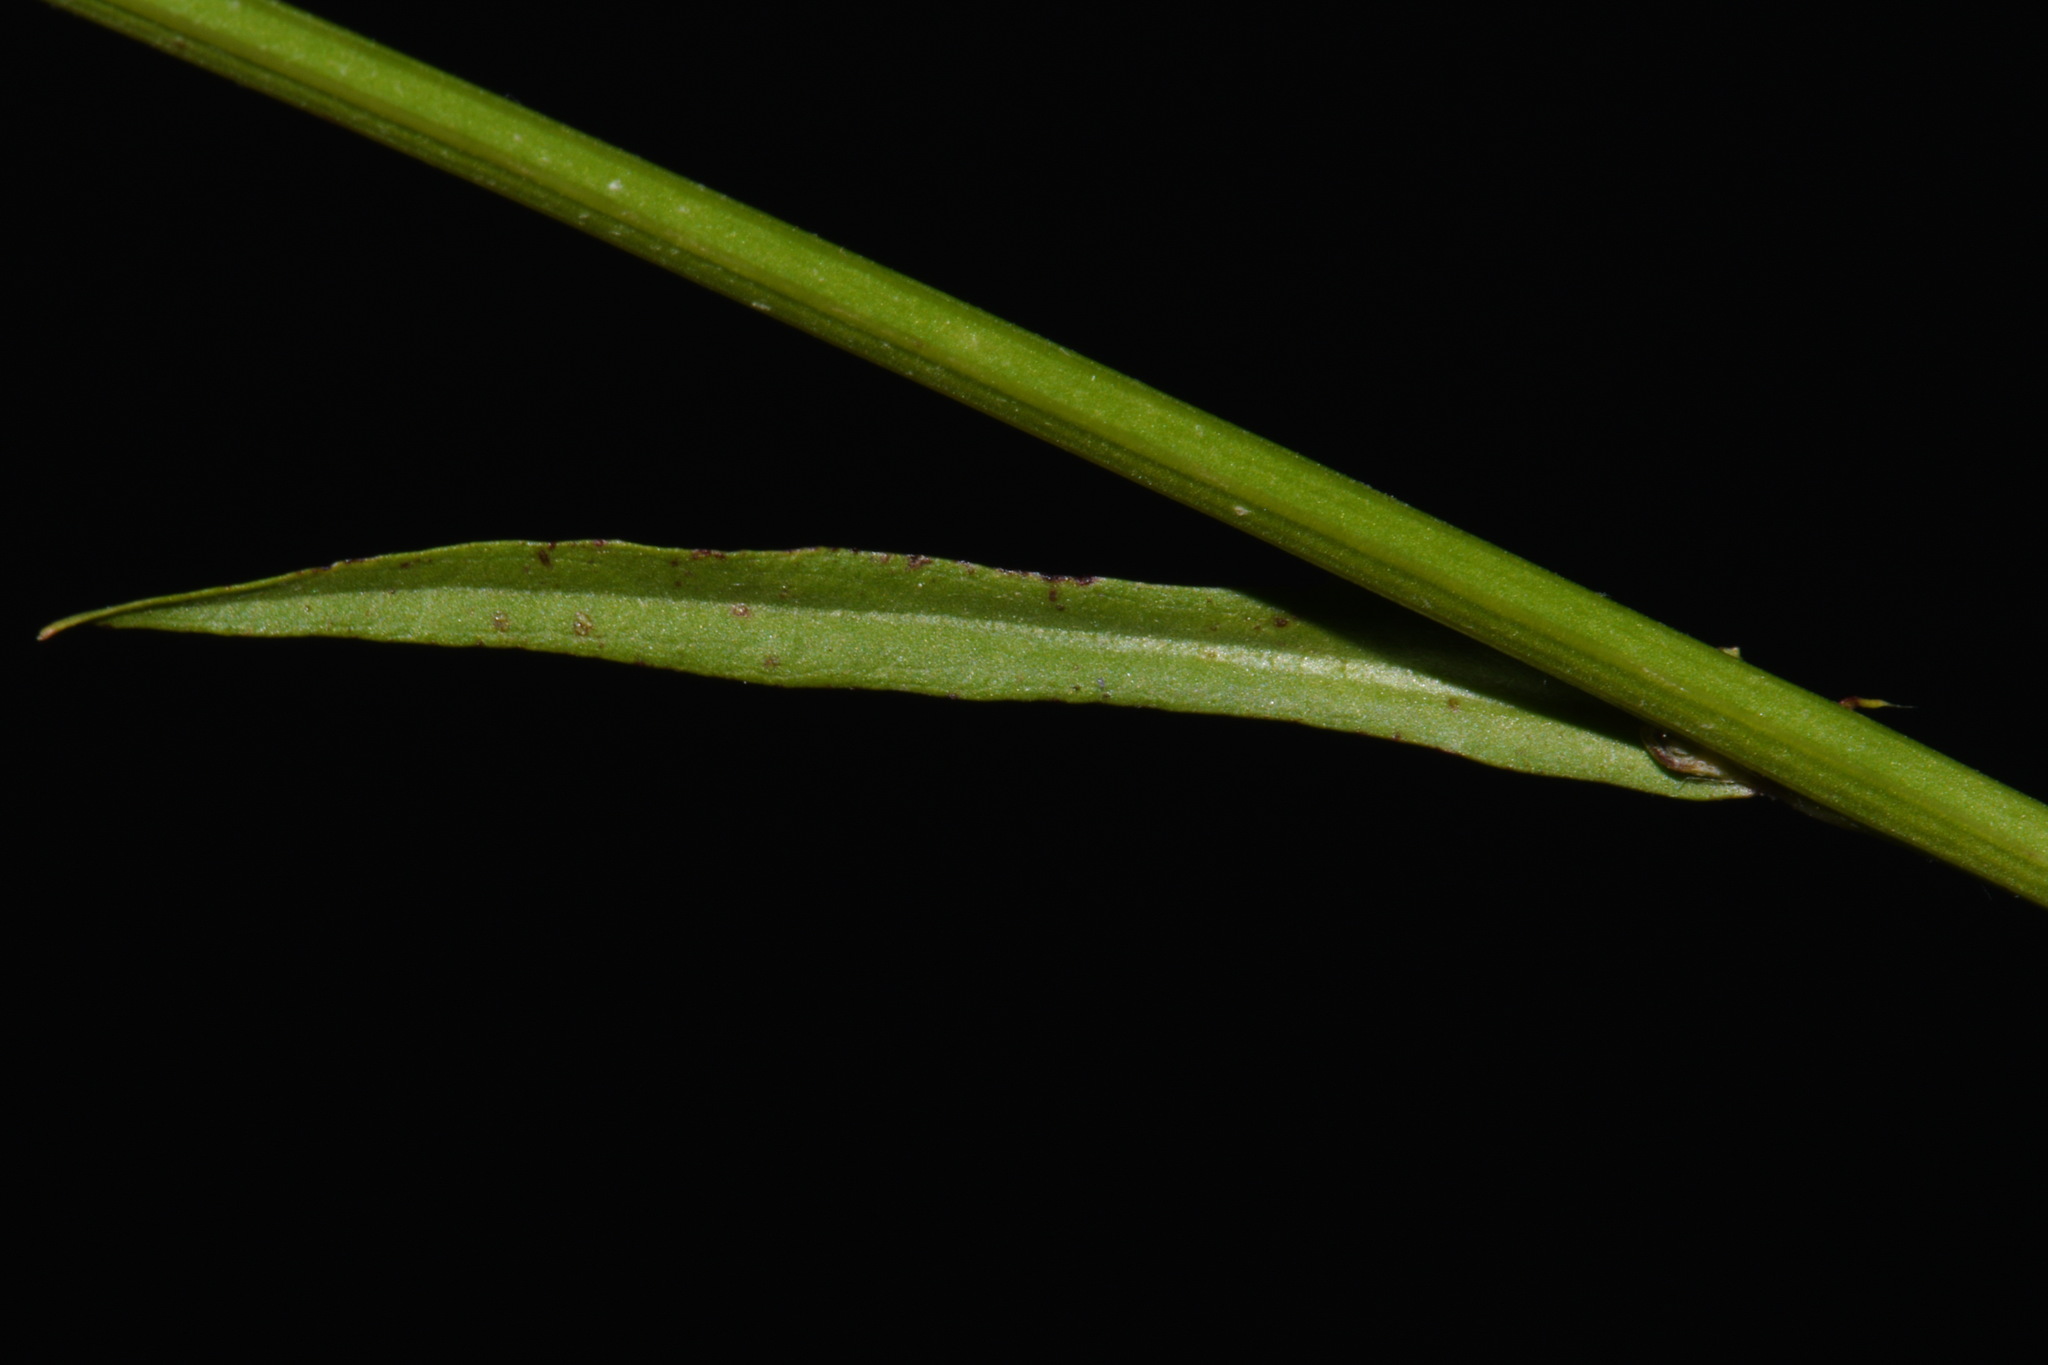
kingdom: Plantae
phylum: Tracheophyta
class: Magnoliopsida
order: Asterales
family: Asteraceae
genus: Hypochaeris
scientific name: Hypochaeris albiflora
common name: White flatweed
